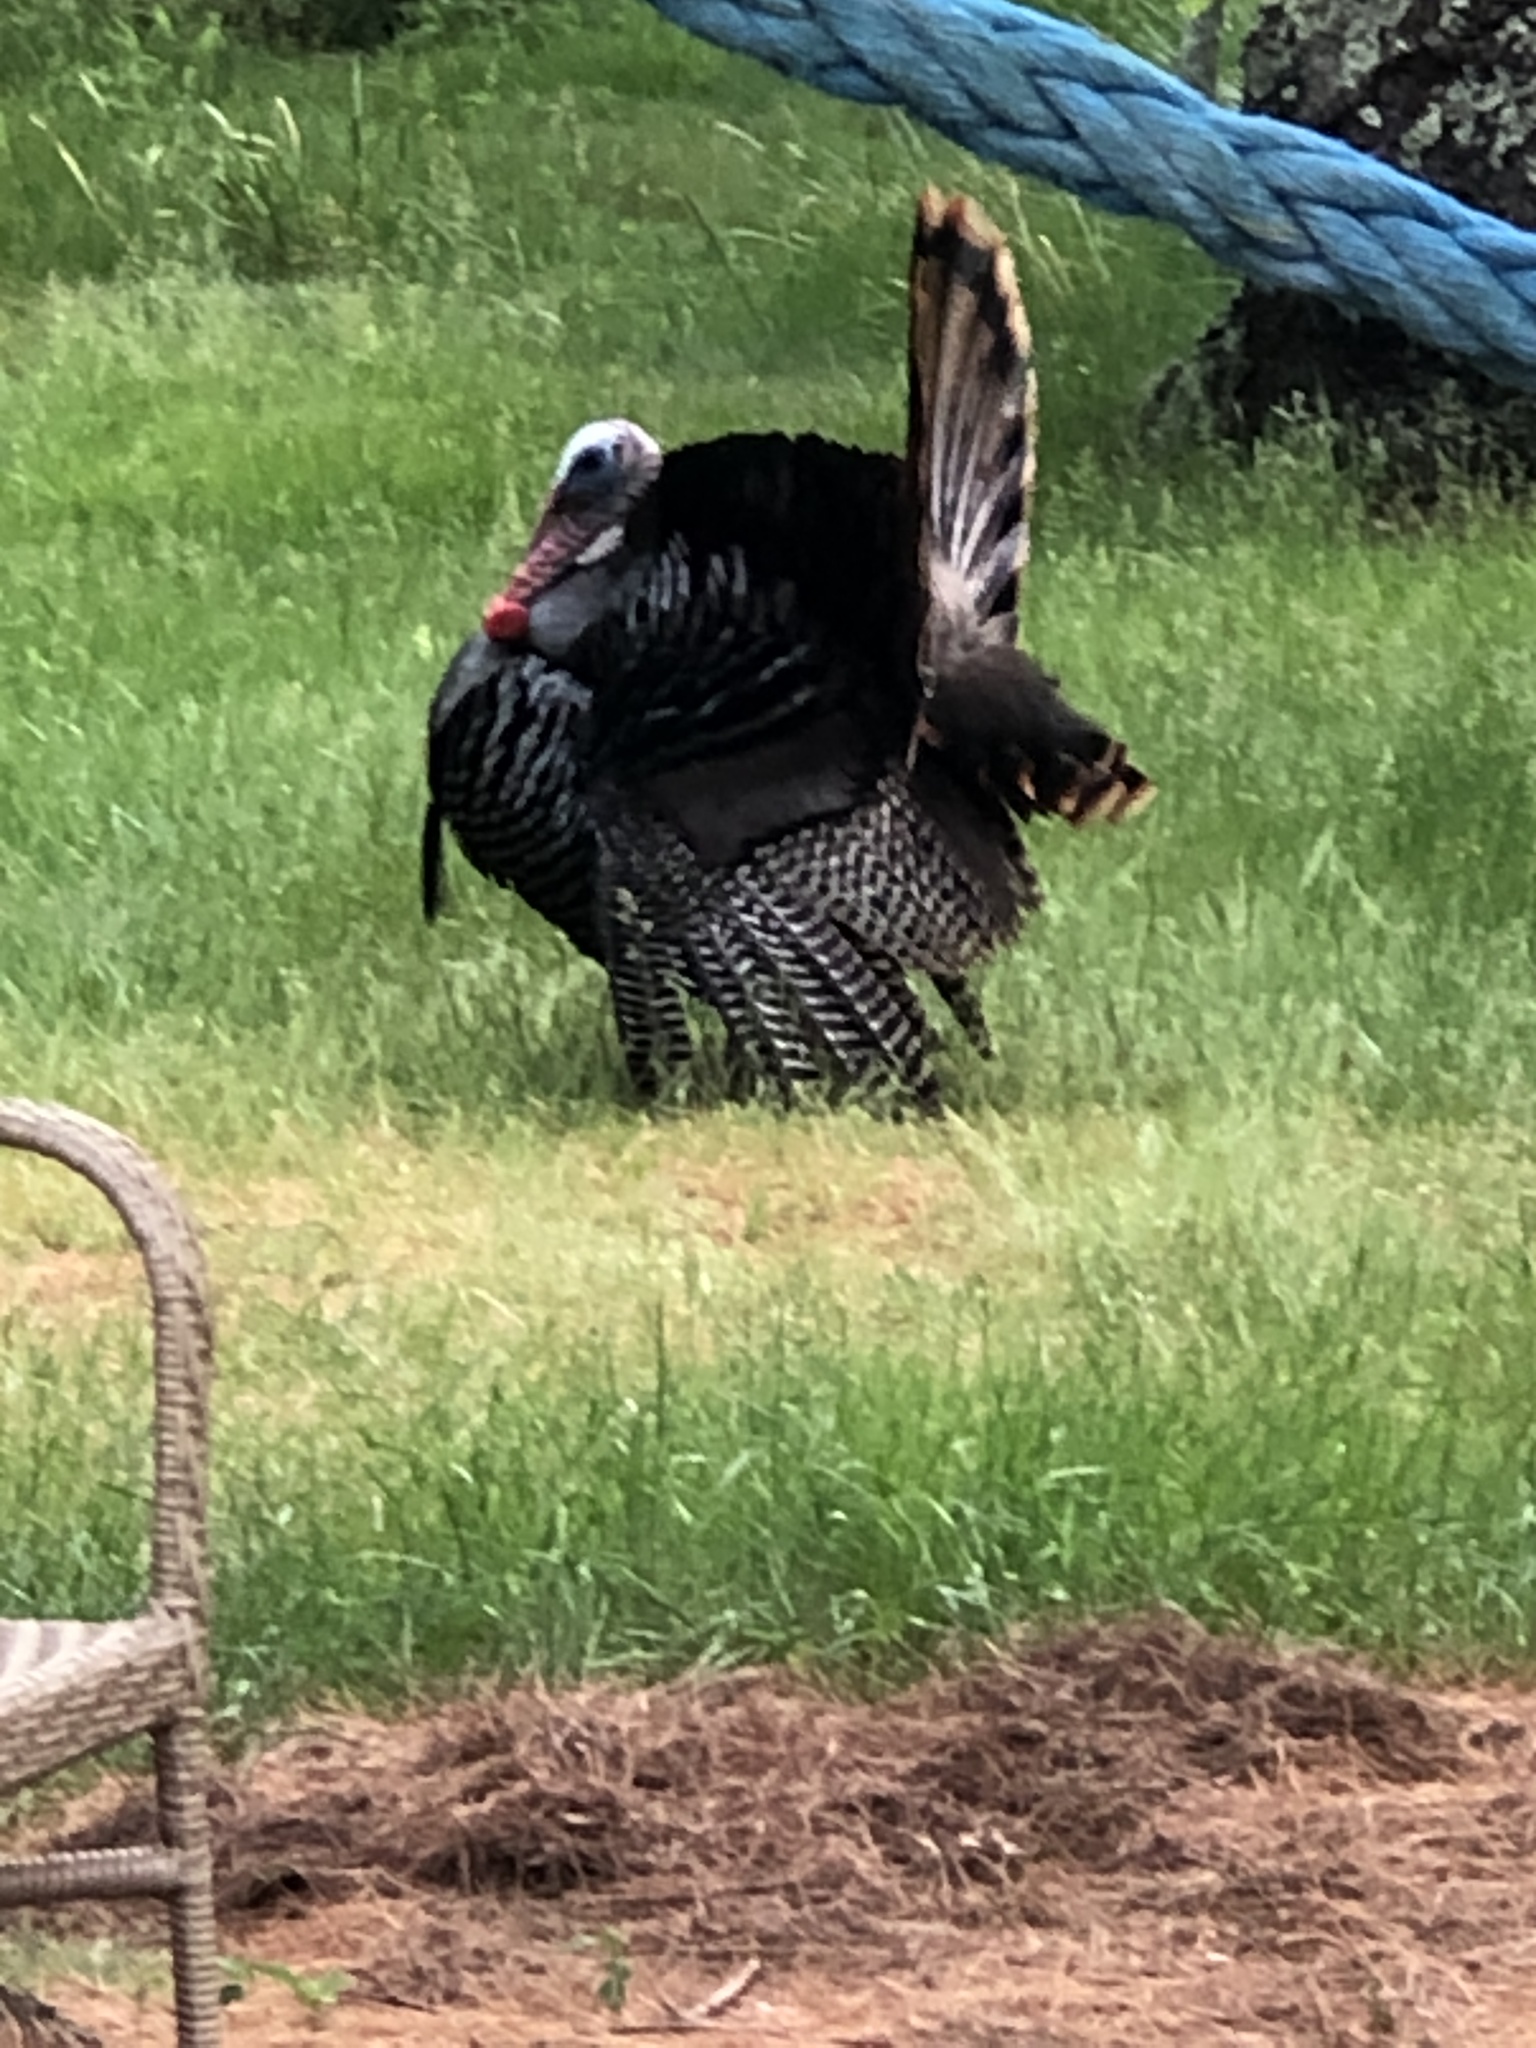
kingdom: Animalia
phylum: Chordata
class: Aves
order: Galliformes
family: Phasianidae
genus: Meleagris
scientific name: Meleagris gallopavo
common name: Wild turkey
